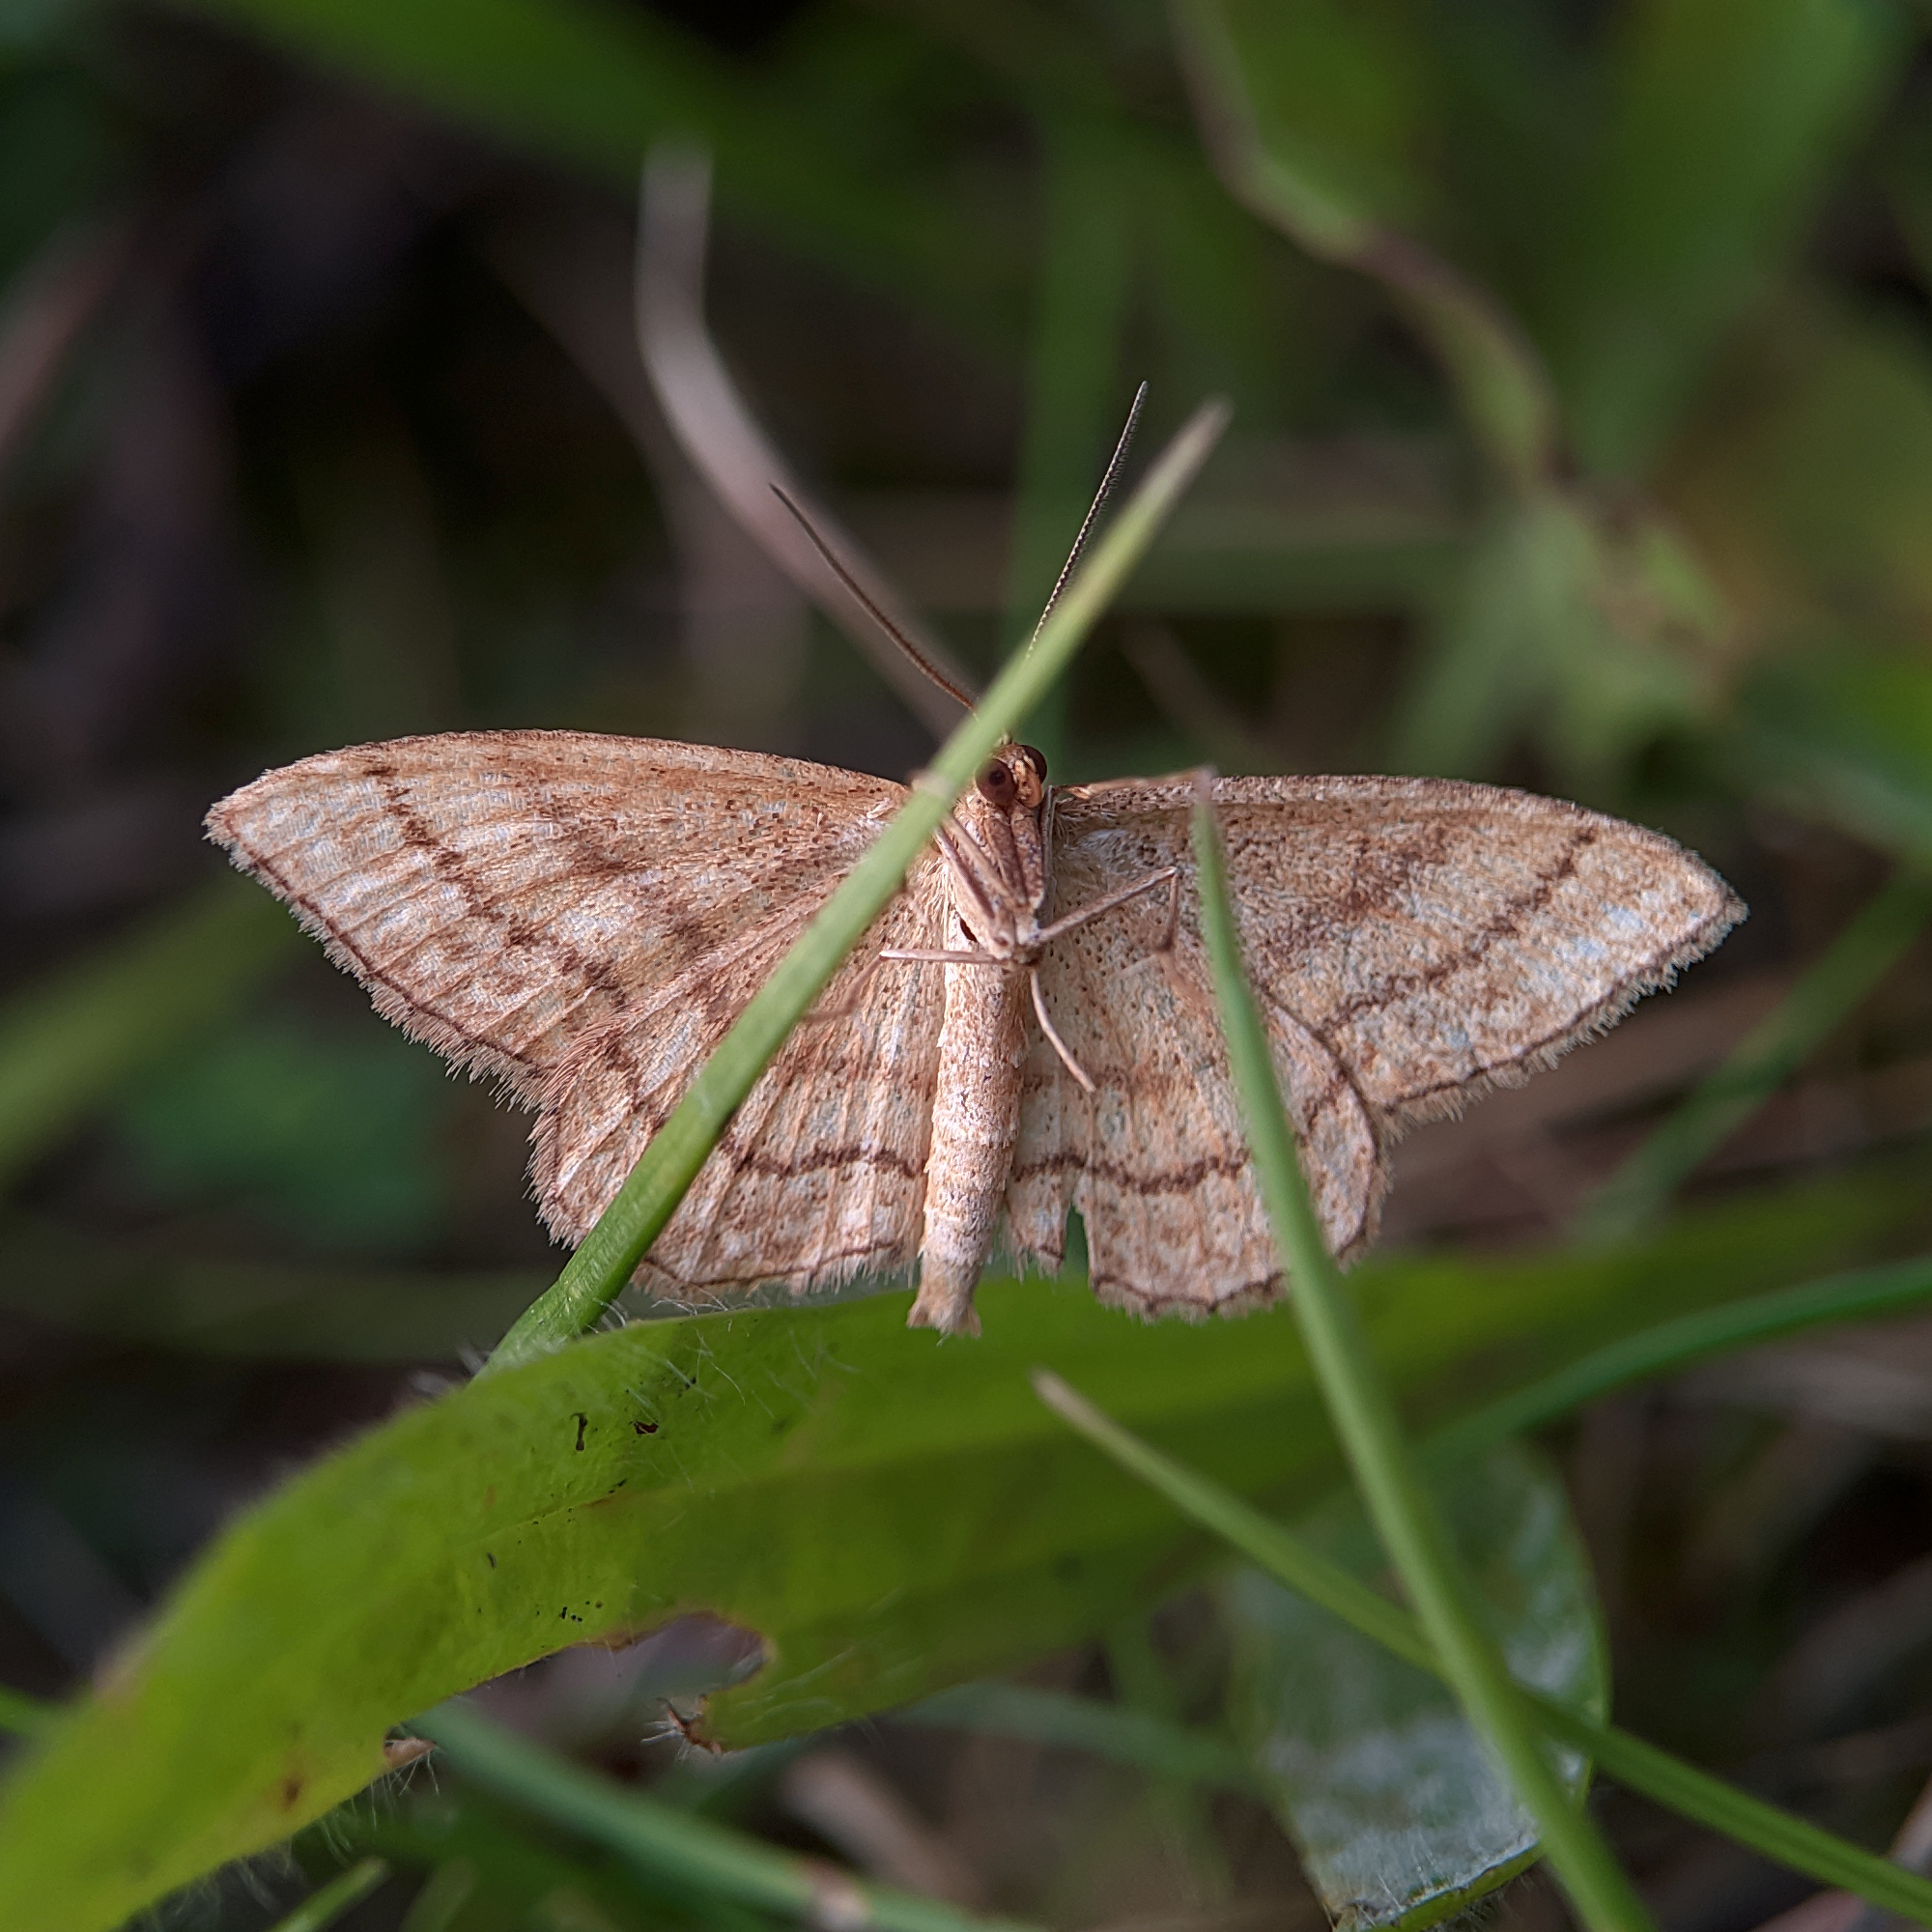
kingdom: Animalia
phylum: Arthropoda
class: Insecta
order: Lepidoptera
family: Geometridae
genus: Idaea
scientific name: Idaea ochrata
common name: Bright wave
